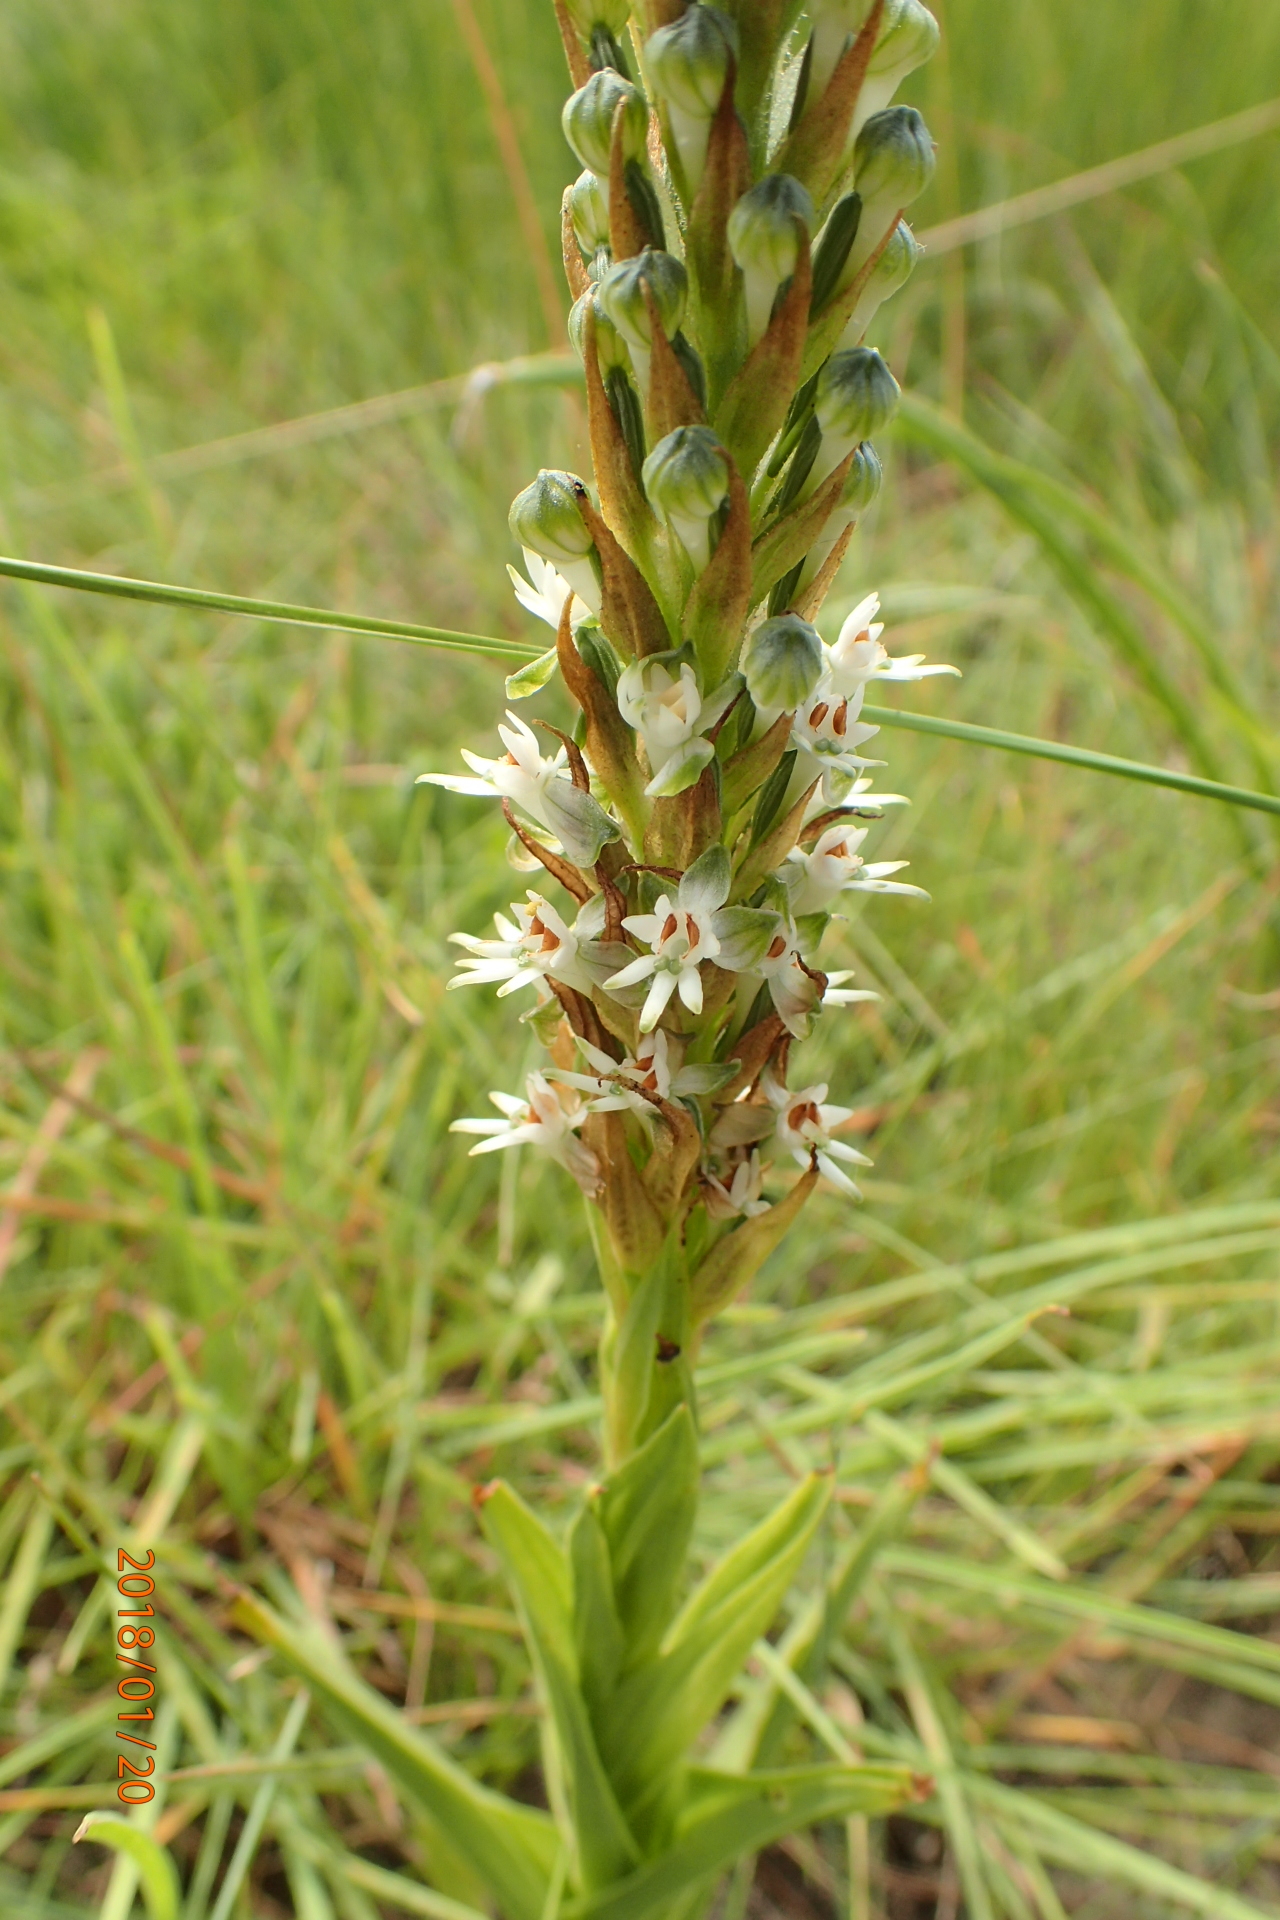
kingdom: Plantae
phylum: Tracheophyta
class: Liliopsida
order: Asparagales
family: Orchidaceae
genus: Habenaria
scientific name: Habenaria dives
